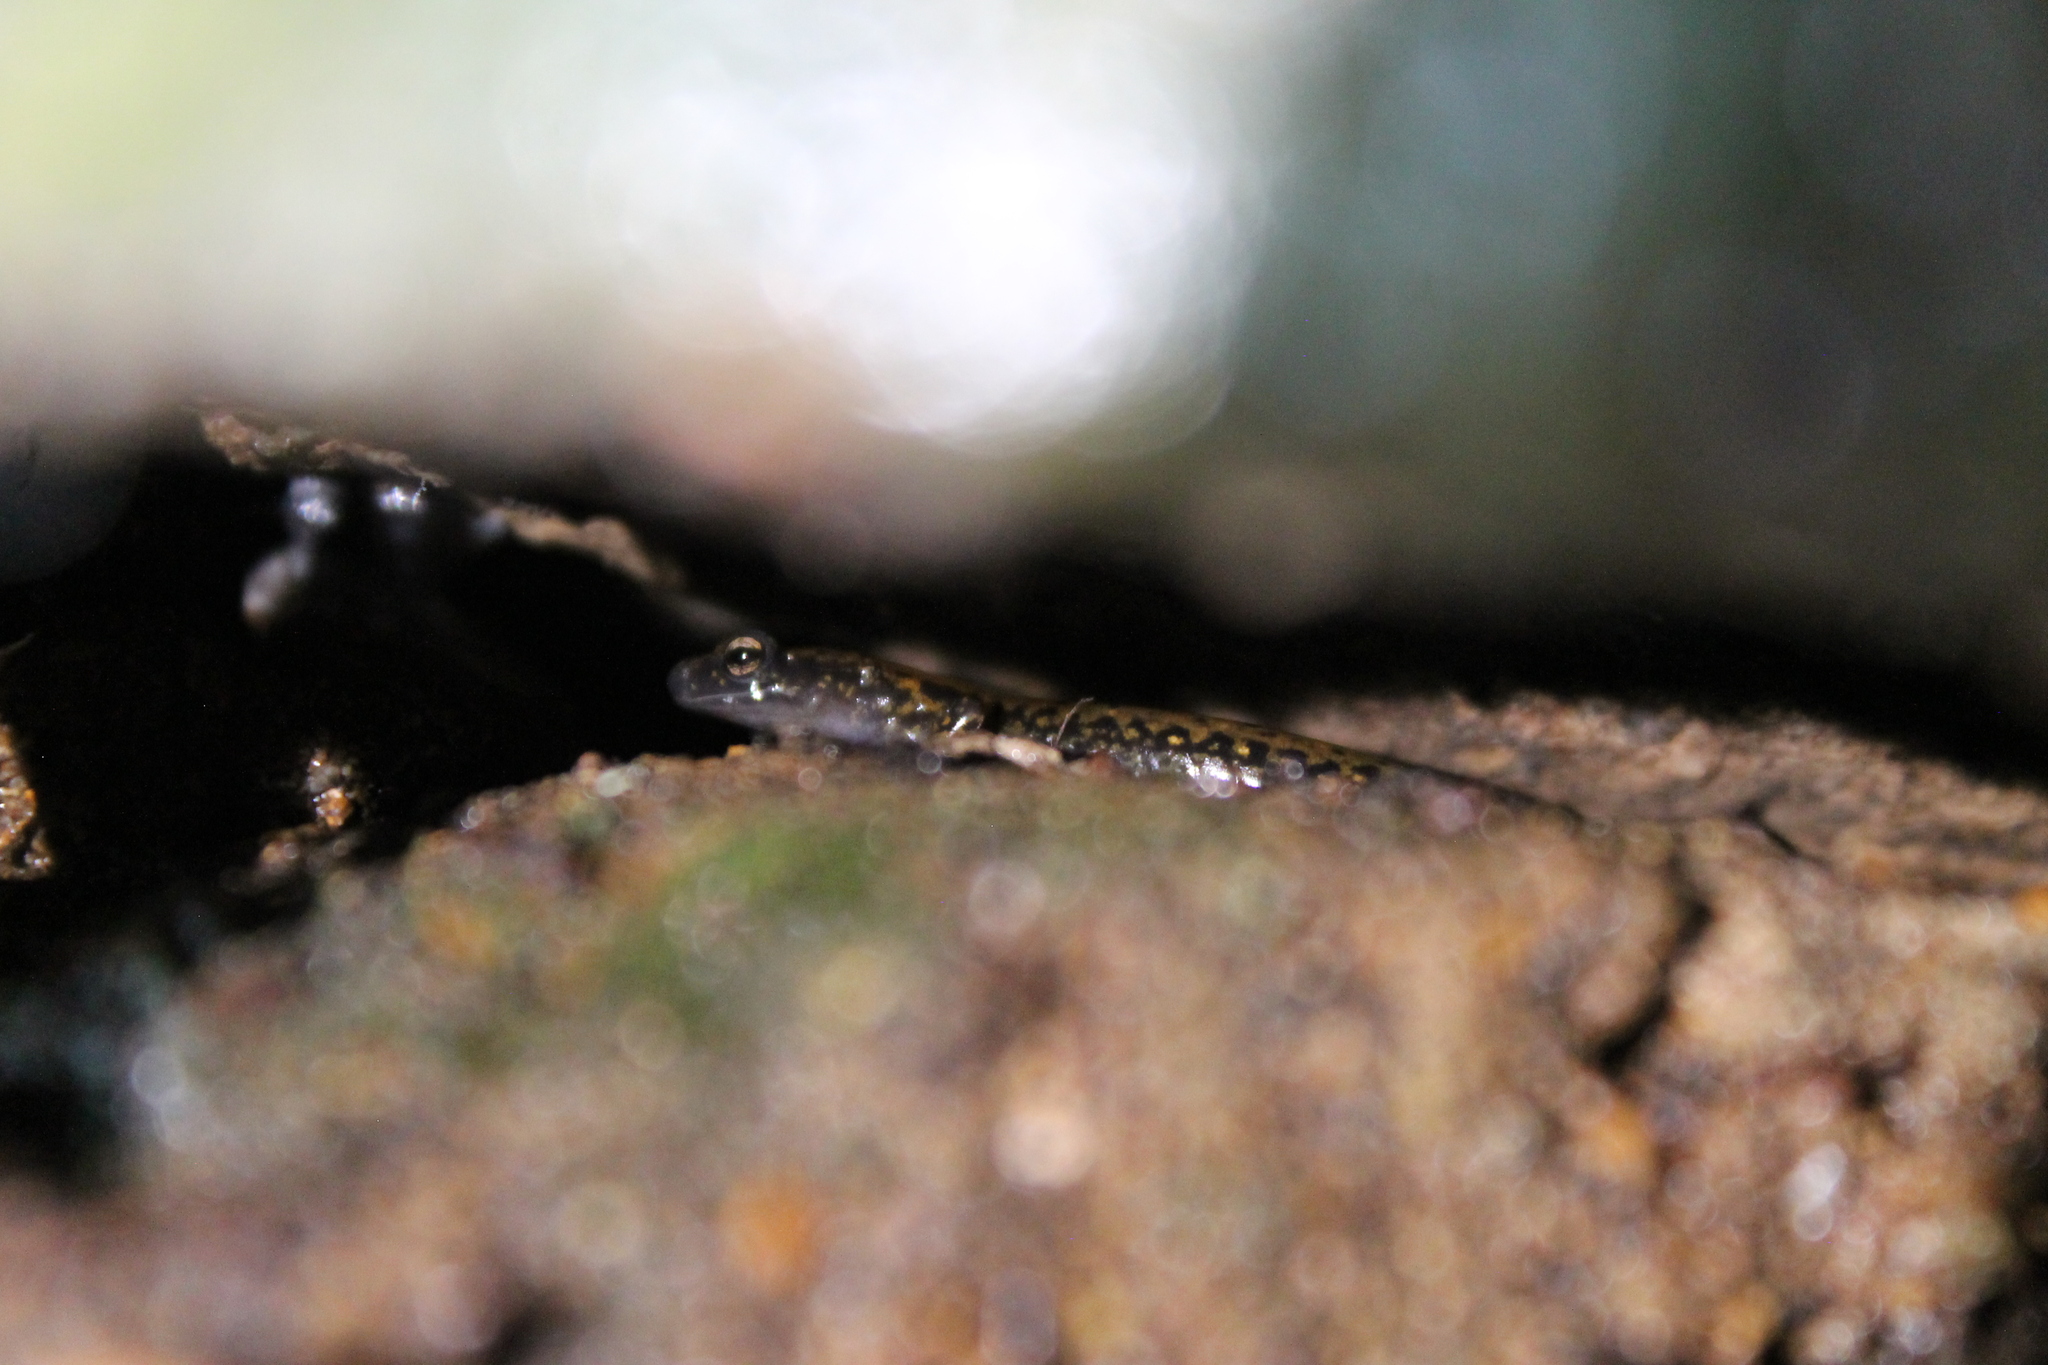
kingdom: Animalia
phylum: Chordata
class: Amphibia
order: Caudata
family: Plethodontidae
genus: Eurycea
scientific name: Eurycea lucifuga
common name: Cave salamander
